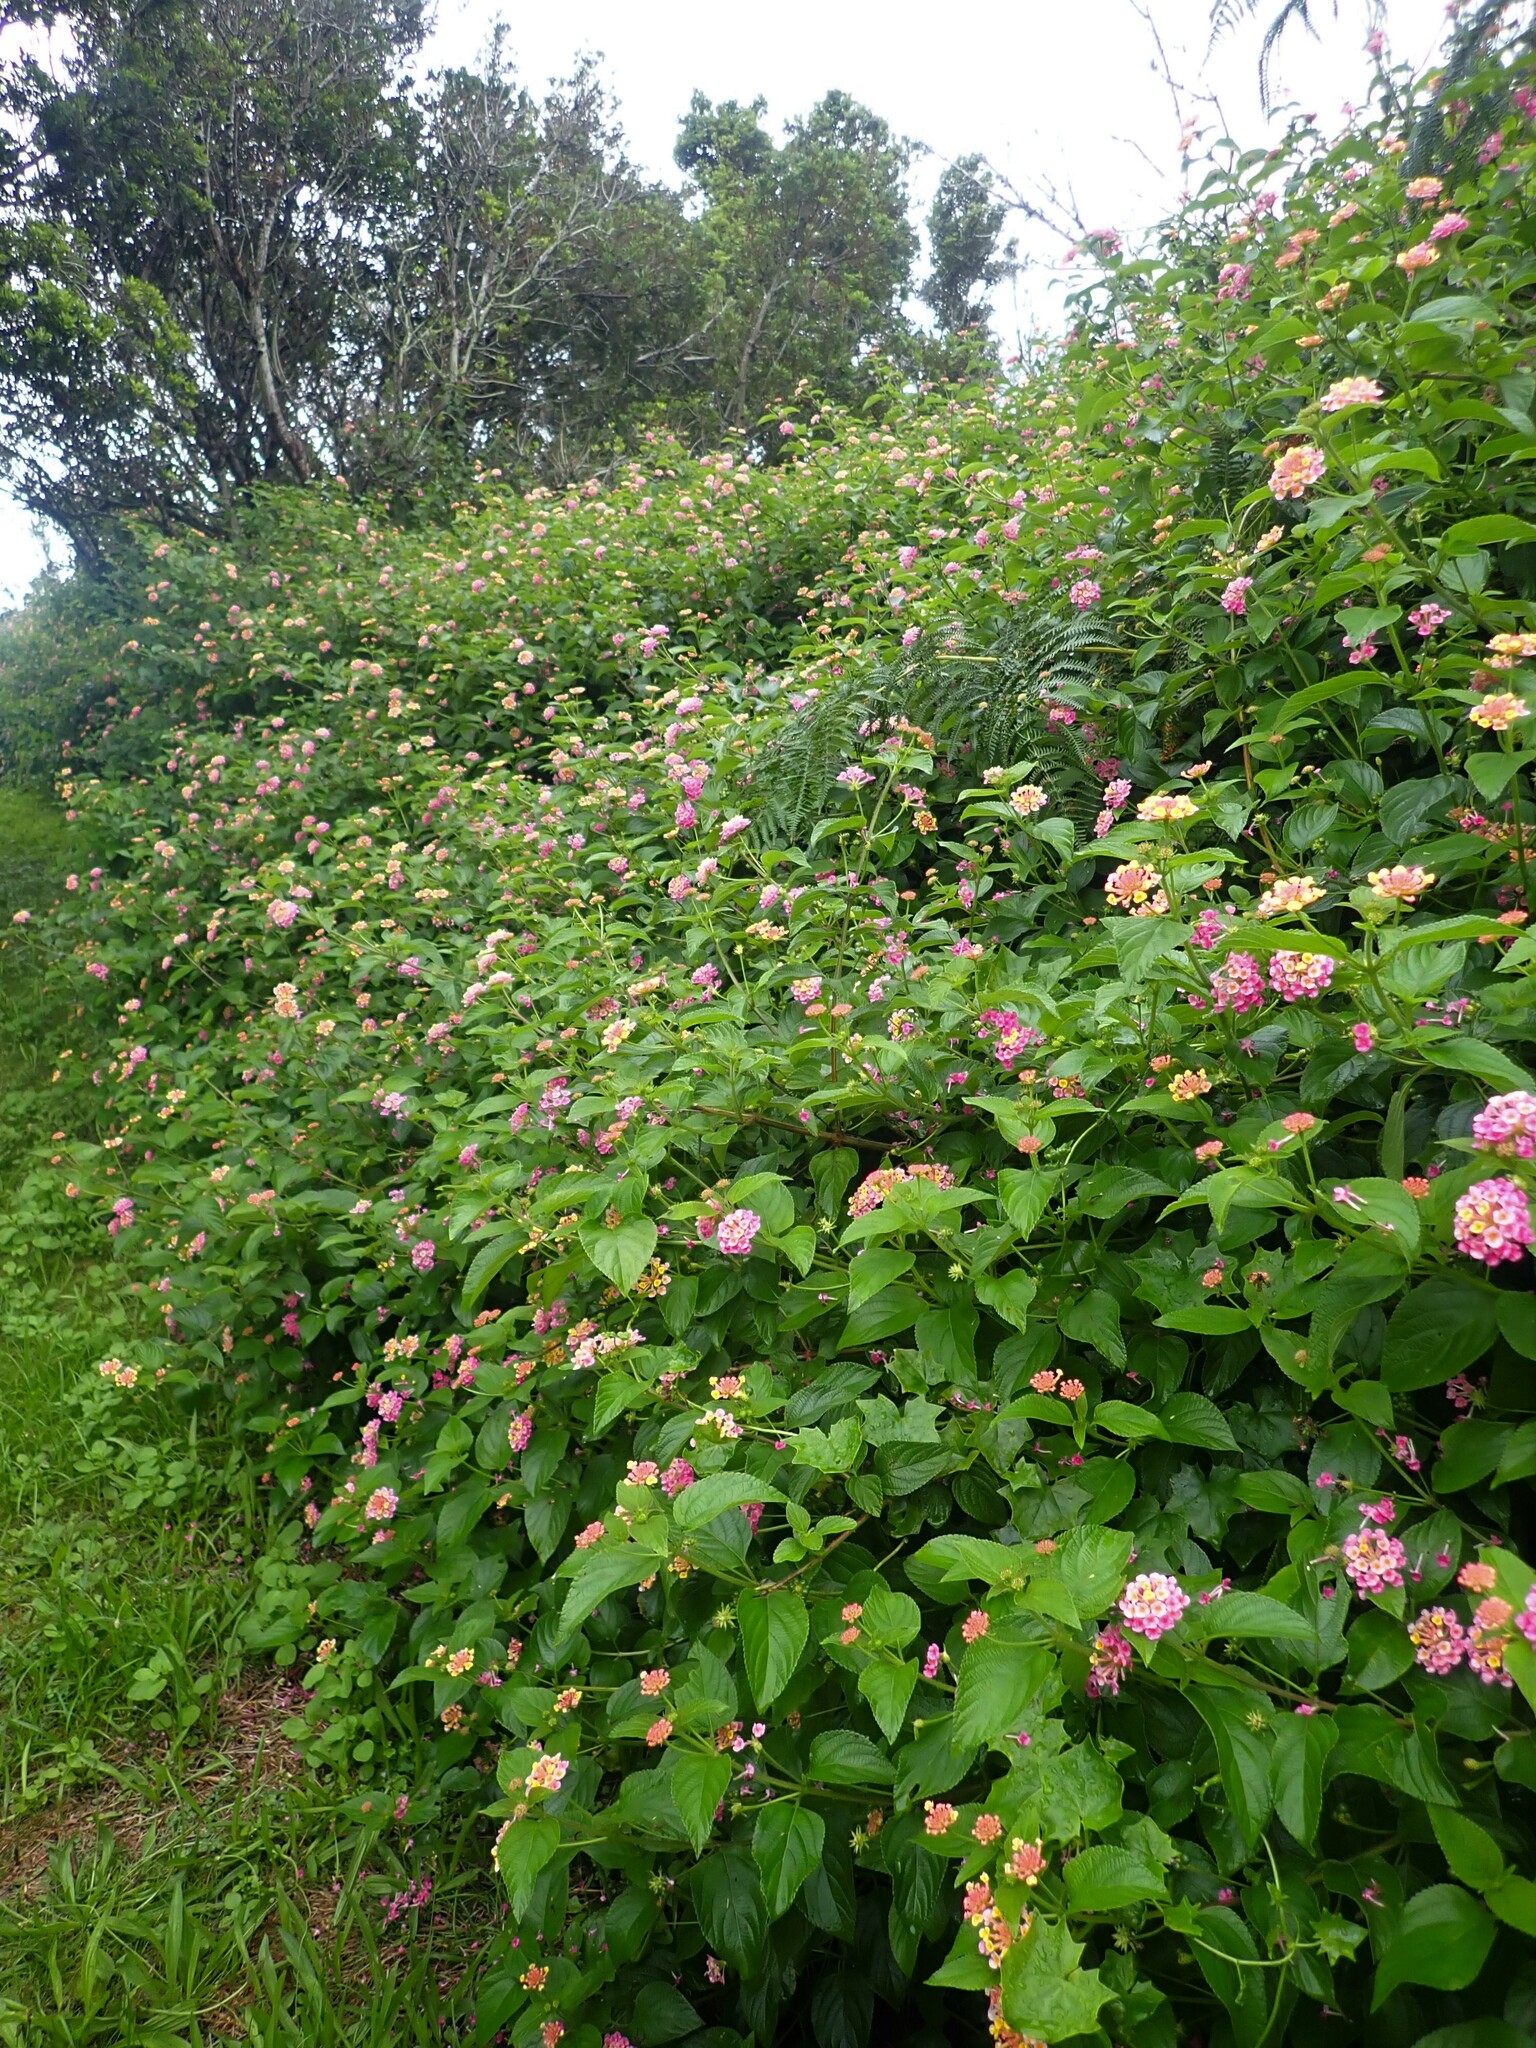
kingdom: Plantae
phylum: Tracheophyta
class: Magnoliopsida
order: Lamiales
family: Verbenaceae
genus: Lantana
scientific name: Lantana camara
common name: Lantana
